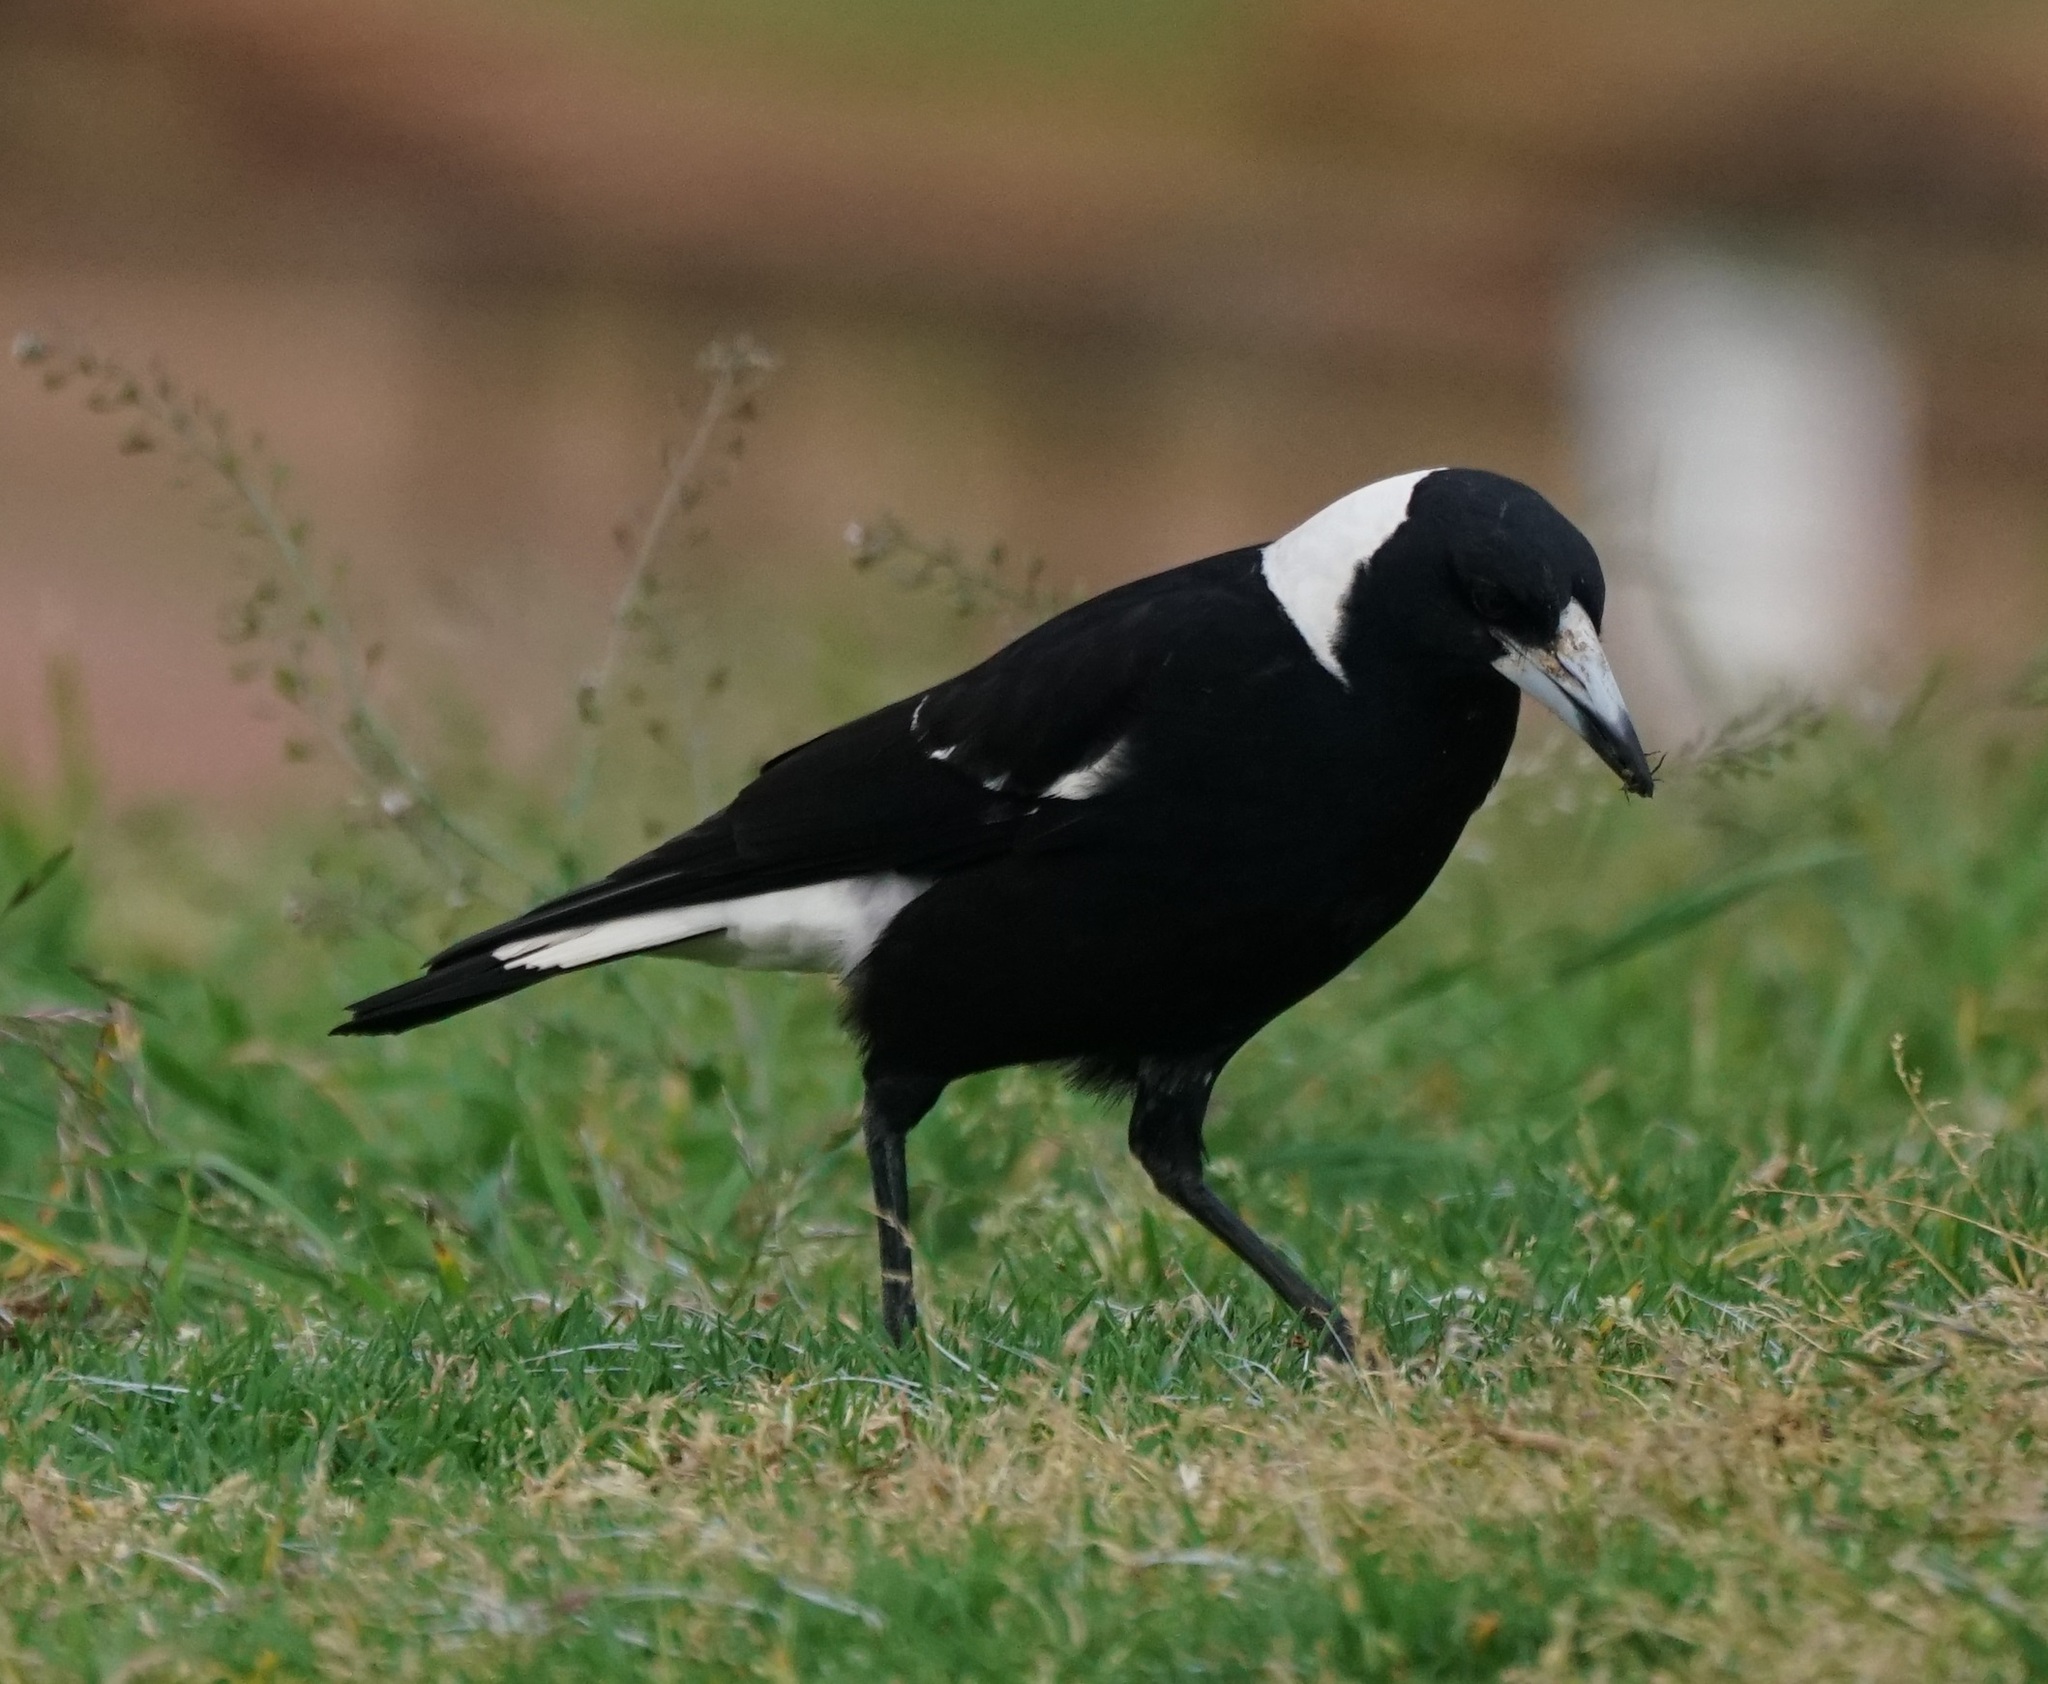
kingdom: Animalia
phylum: Chordata
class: Aves
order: Passeriformes
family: Cracticidae
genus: Gymnorhina
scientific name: Gymnorhina tibicen
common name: Australian magpie
